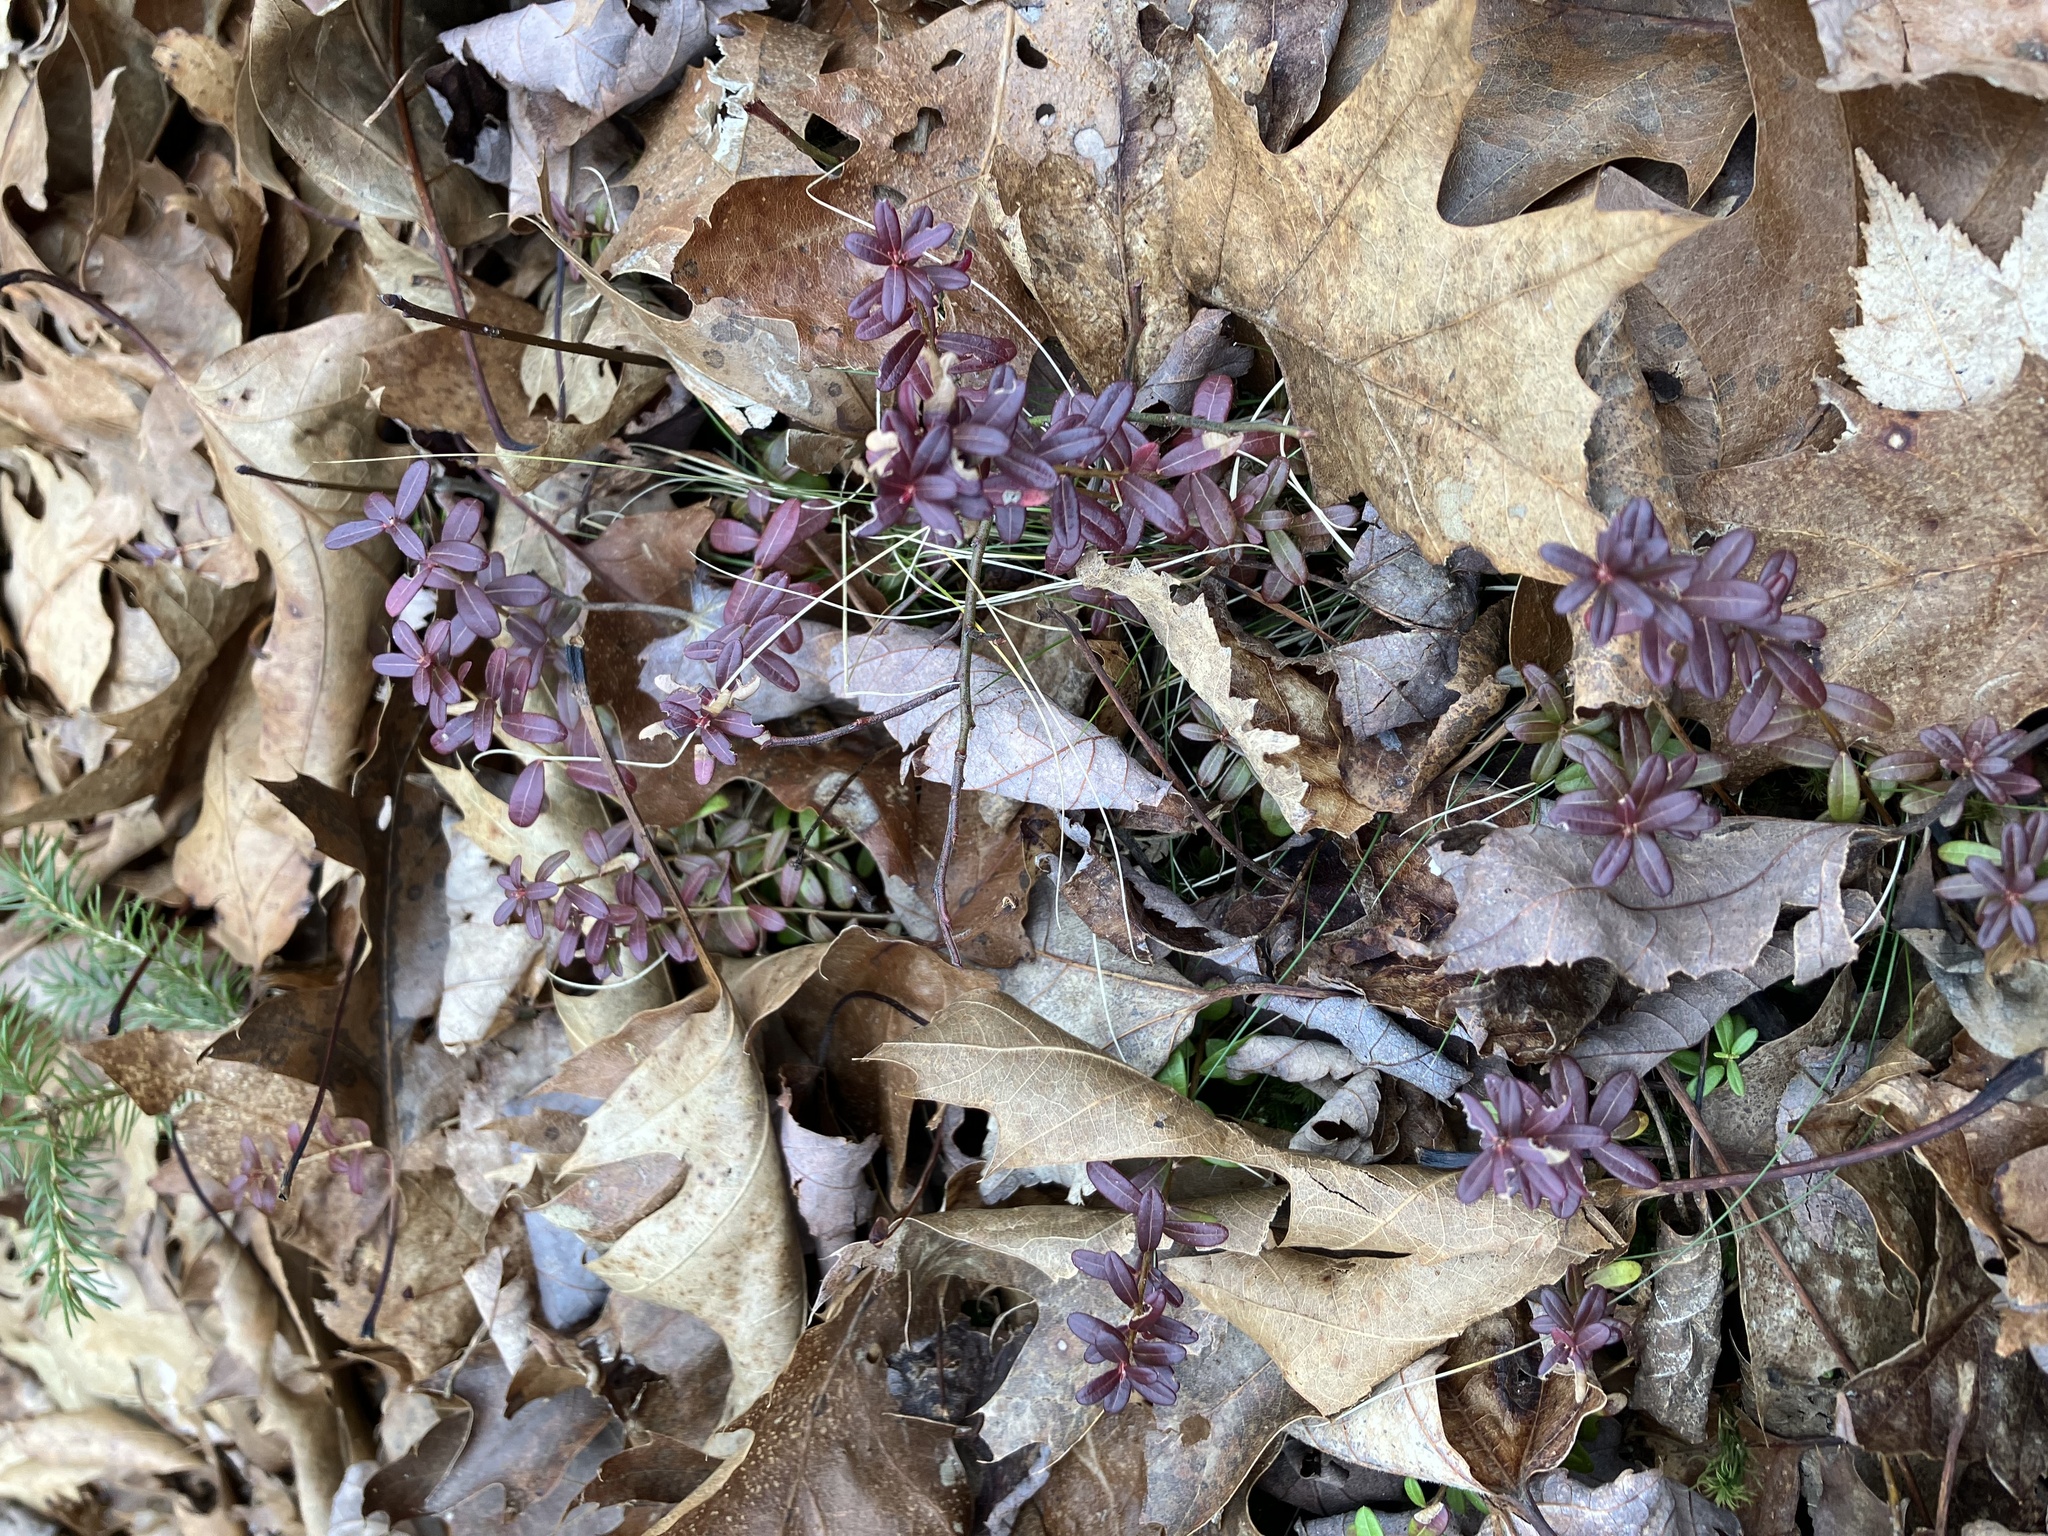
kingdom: Plantae
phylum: Tracheophyta
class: Magnoliopsida
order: Ericales
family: Ericaceae
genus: Vaccinium
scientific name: Vaccinium macrocarpon
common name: American cranberry
